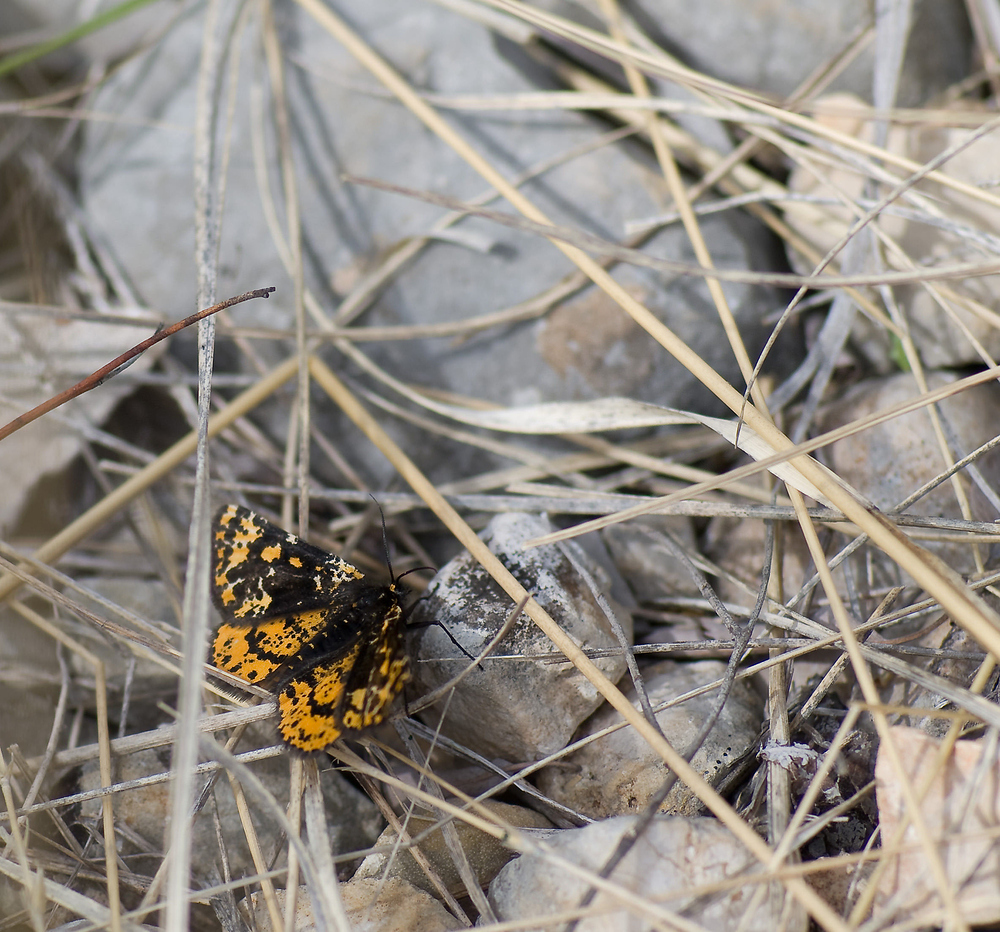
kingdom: Animalia
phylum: Arthropoda
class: Insecta
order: Lepidoptera
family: Geometridae
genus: Eurranthis
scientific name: Eurranthis plummistaria
